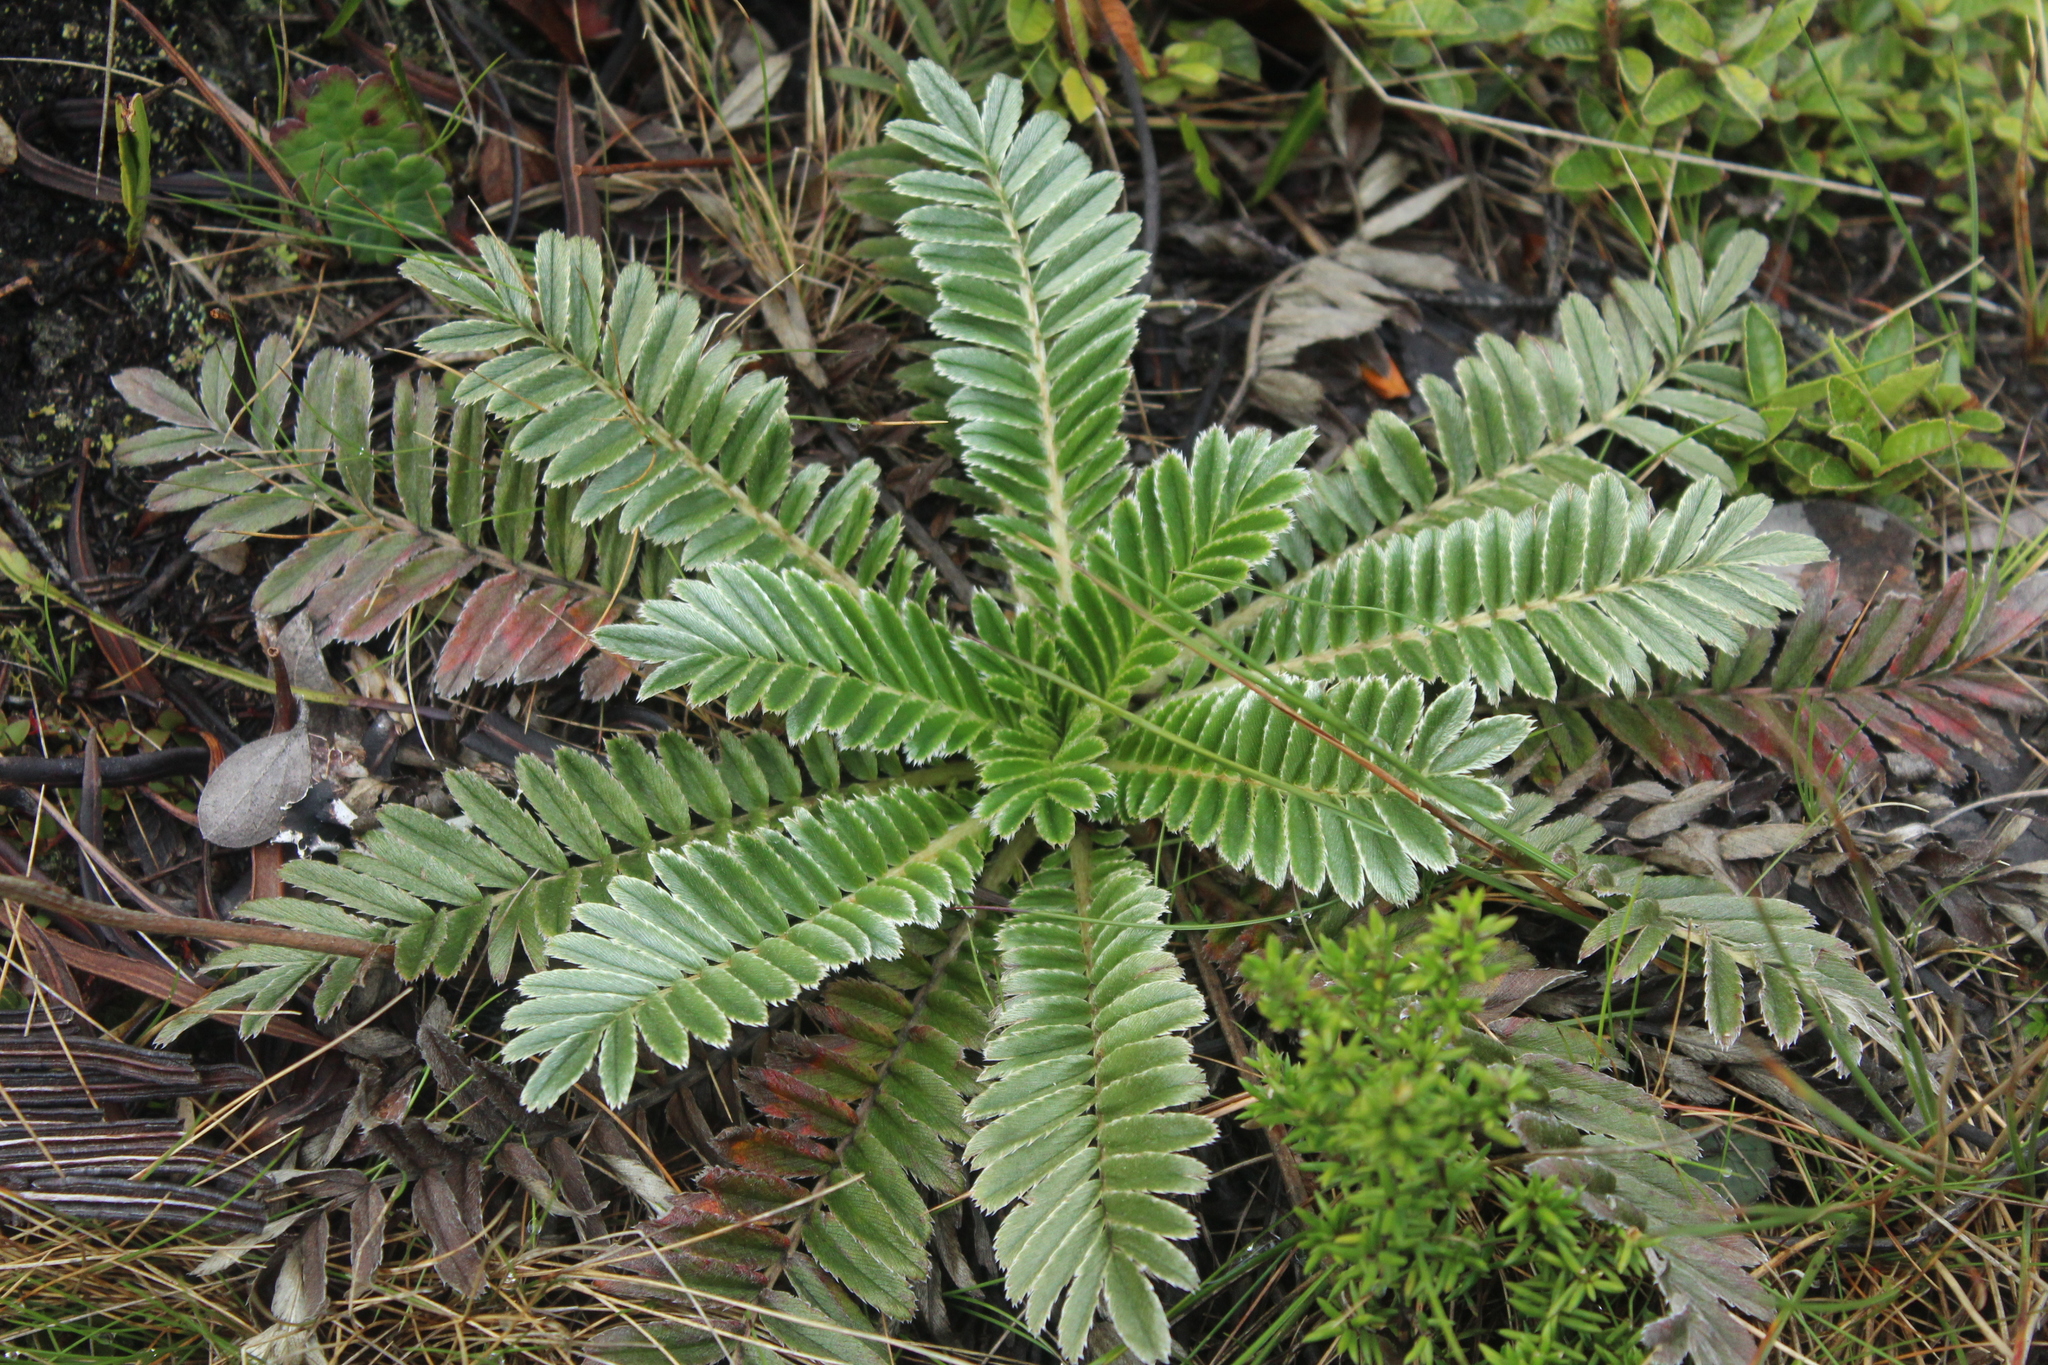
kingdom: Plantae
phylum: Tracheophyta
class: Magnoliopsida
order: Rosales
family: Rosaceae
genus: Acaena
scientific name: Acaena cylindristachya
